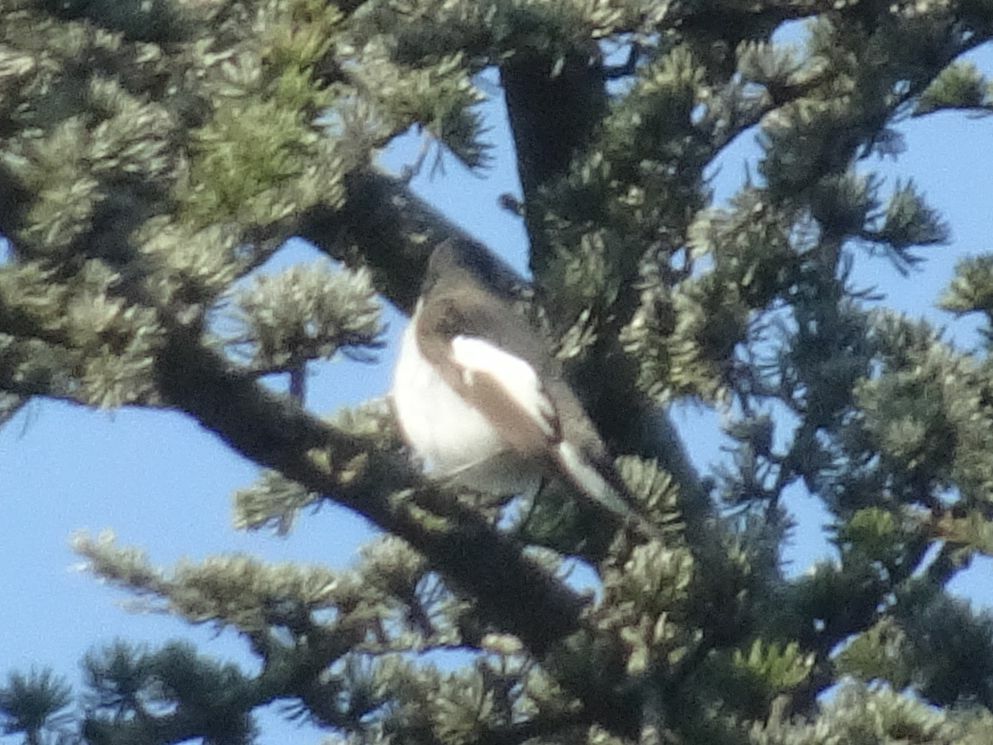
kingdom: Animalia
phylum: Chordata
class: Aves
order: Passeriformes
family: Muscicapidae
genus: Ficedula
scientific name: Ficedula hypoleuca
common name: European pied flycatcher
